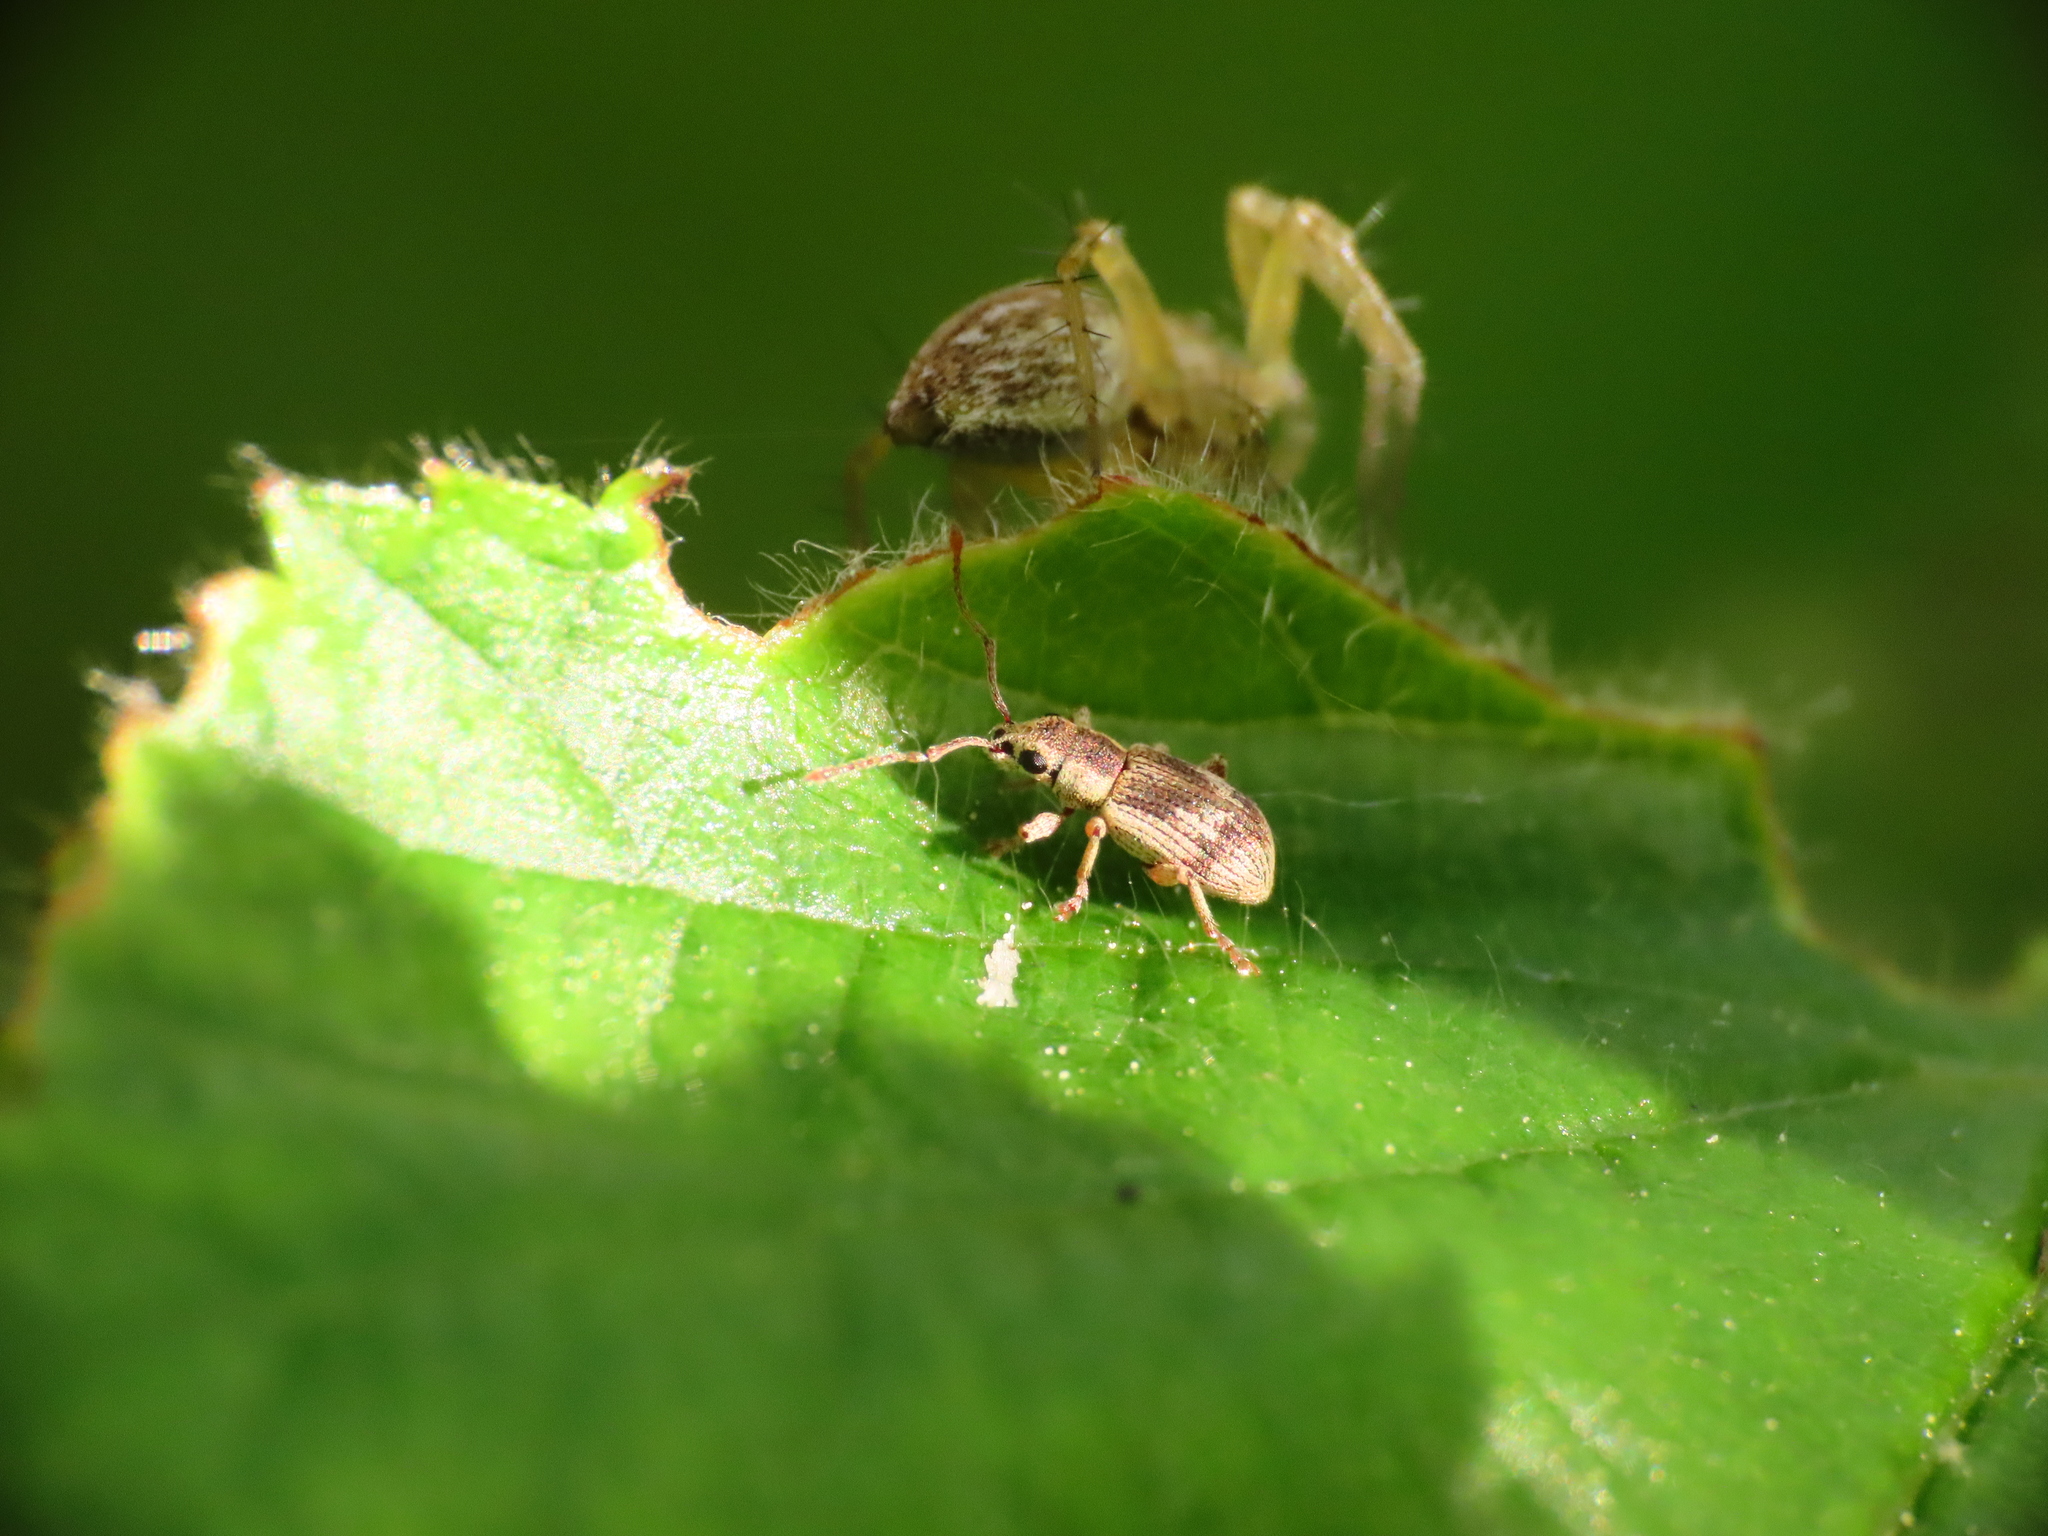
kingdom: Animalia
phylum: Arthropoda
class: Insecta
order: Coleoptera
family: Curculionidae
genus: Pseudomyllocerus
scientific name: Pseudomyllocerus neapolitanus
